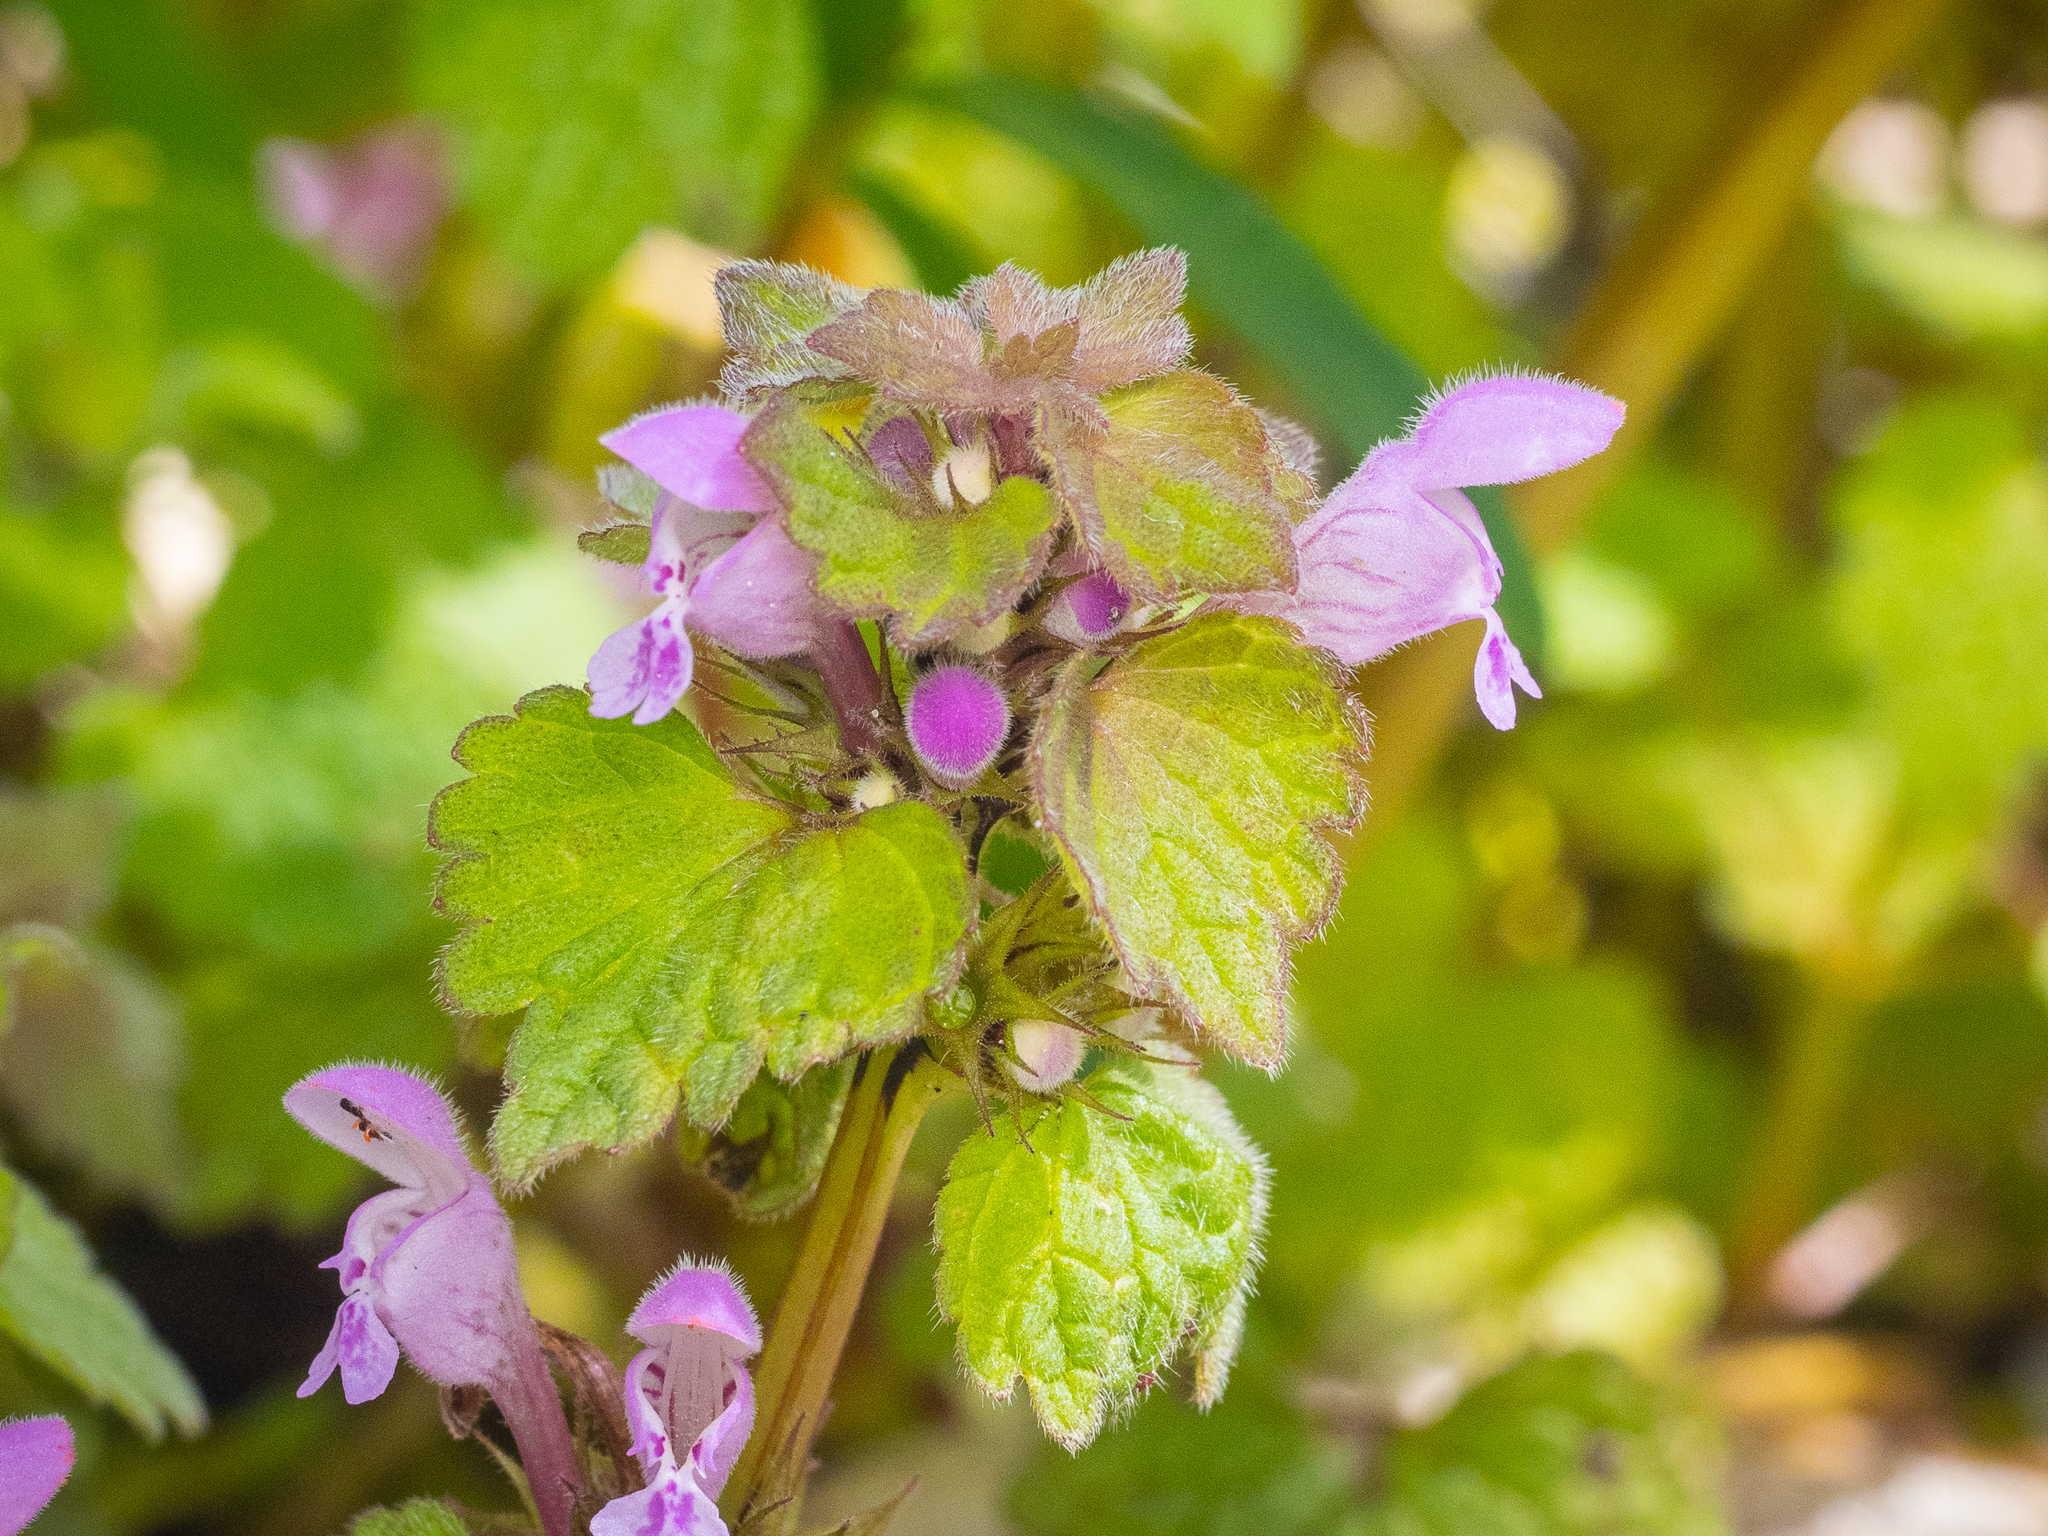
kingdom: Plantae
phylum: Tracheophyta
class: Magnoliopsida
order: Lamiales
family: Lamiaceae
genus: Lamium
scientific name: Lamium purpureum
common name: Red dead-nettle
